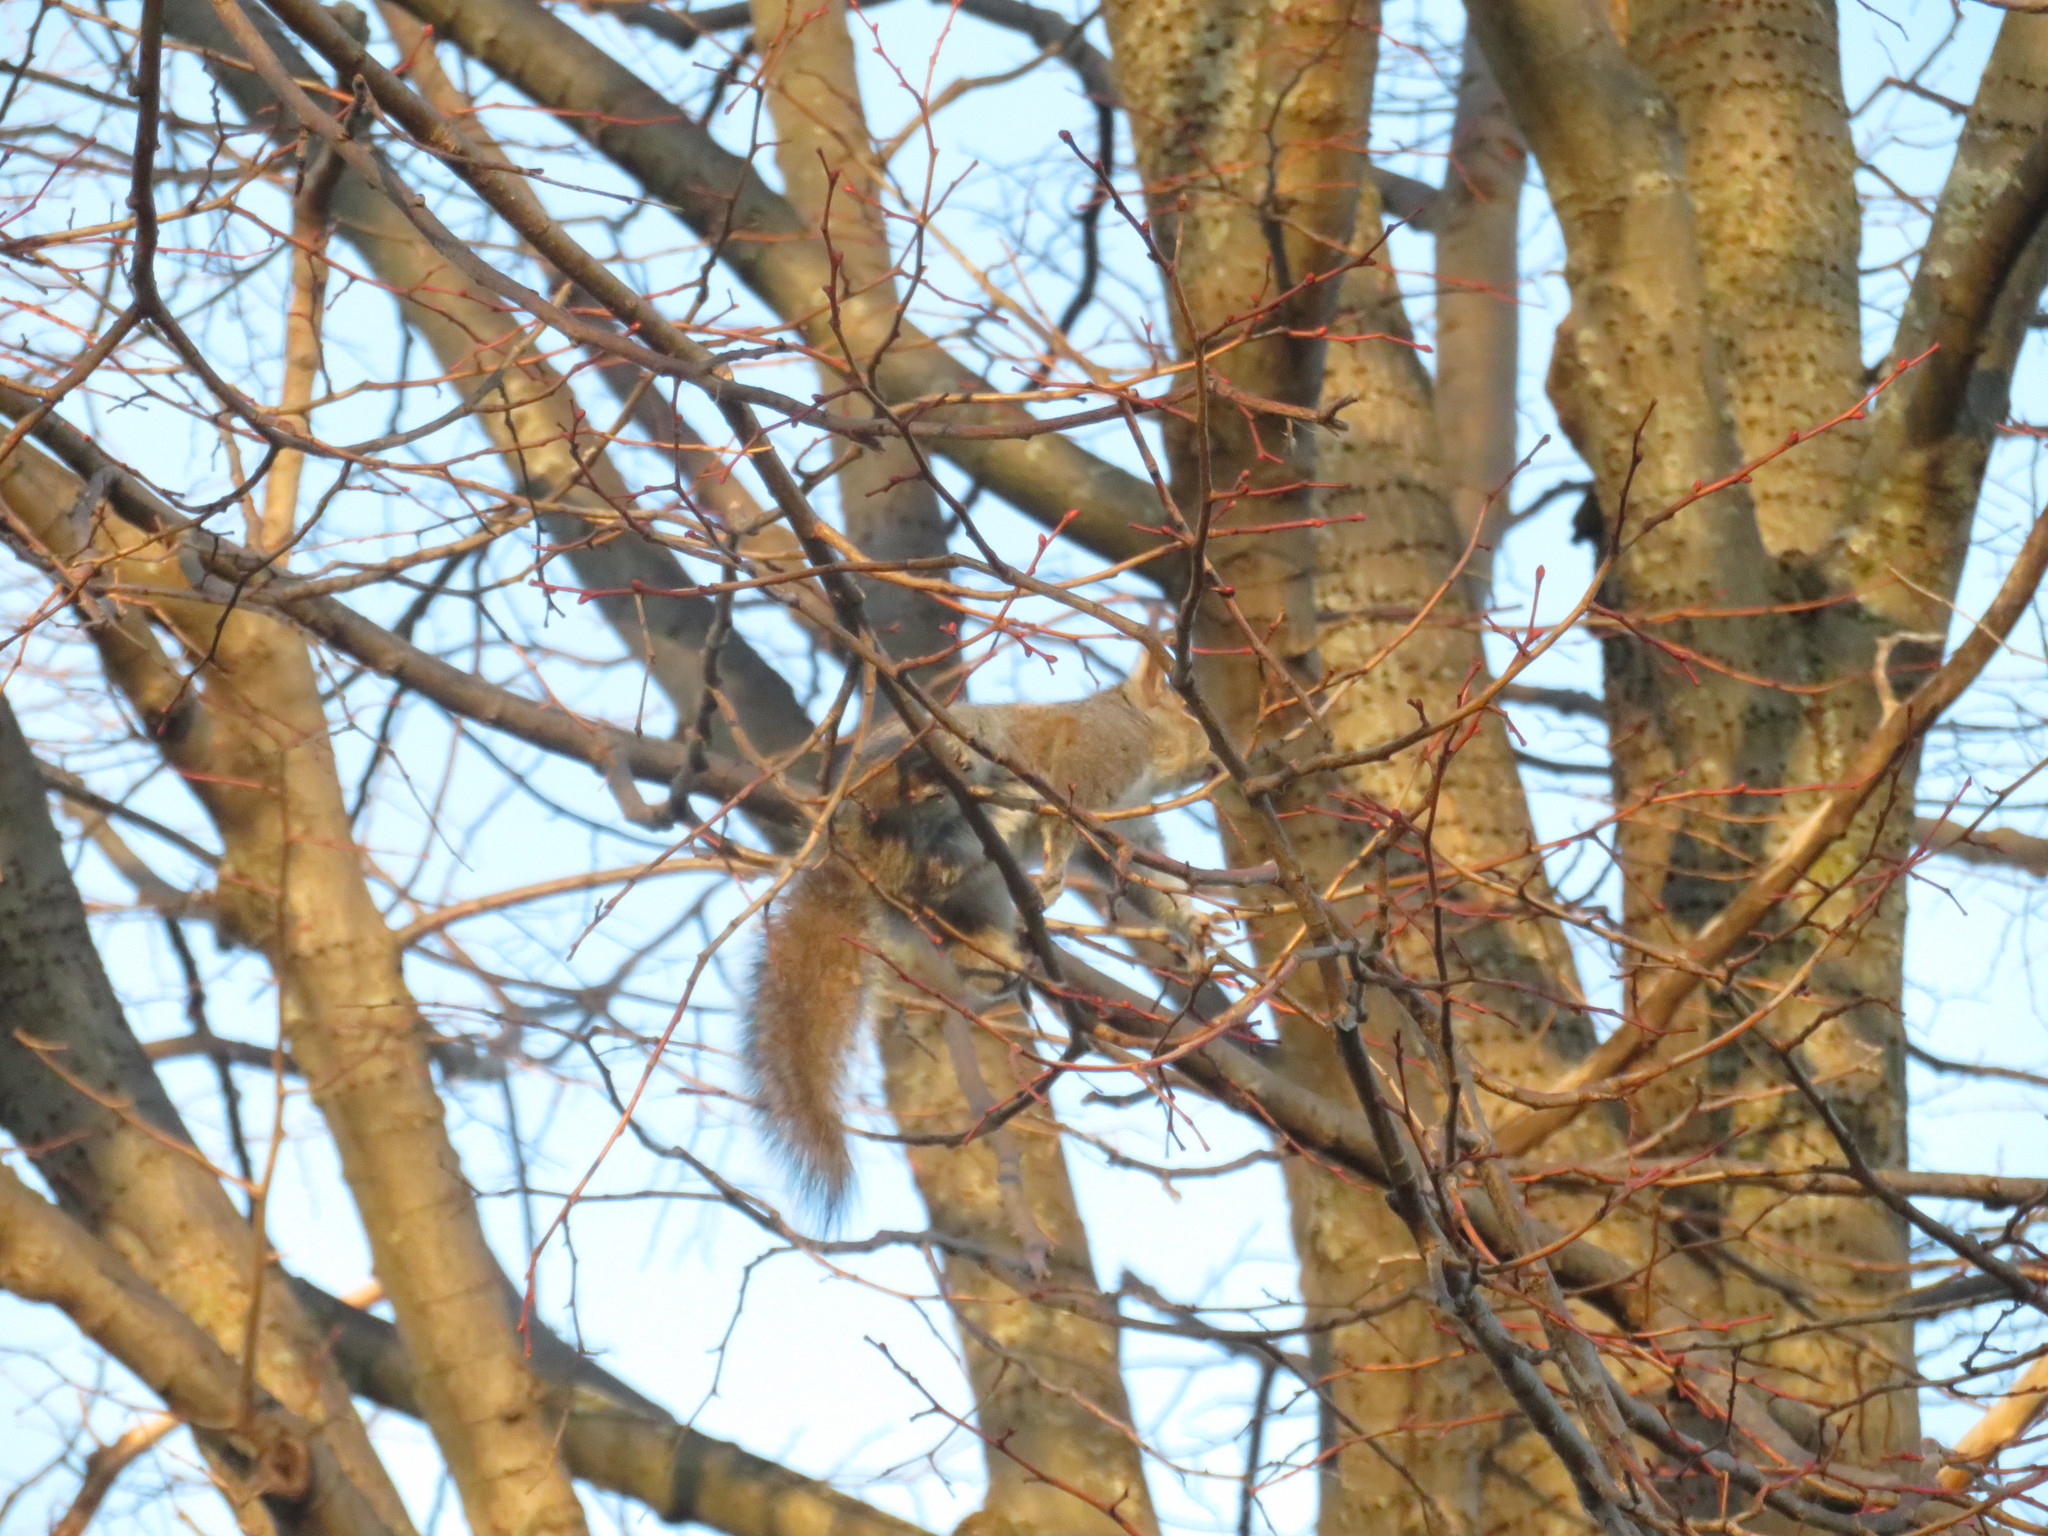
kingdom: Animalia
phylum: Chordata
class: Mammalia
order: Rodentia
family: Sciuridae
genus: Sciurus
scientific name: Sciurus carolinensis
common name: Eastern gray squirrel
